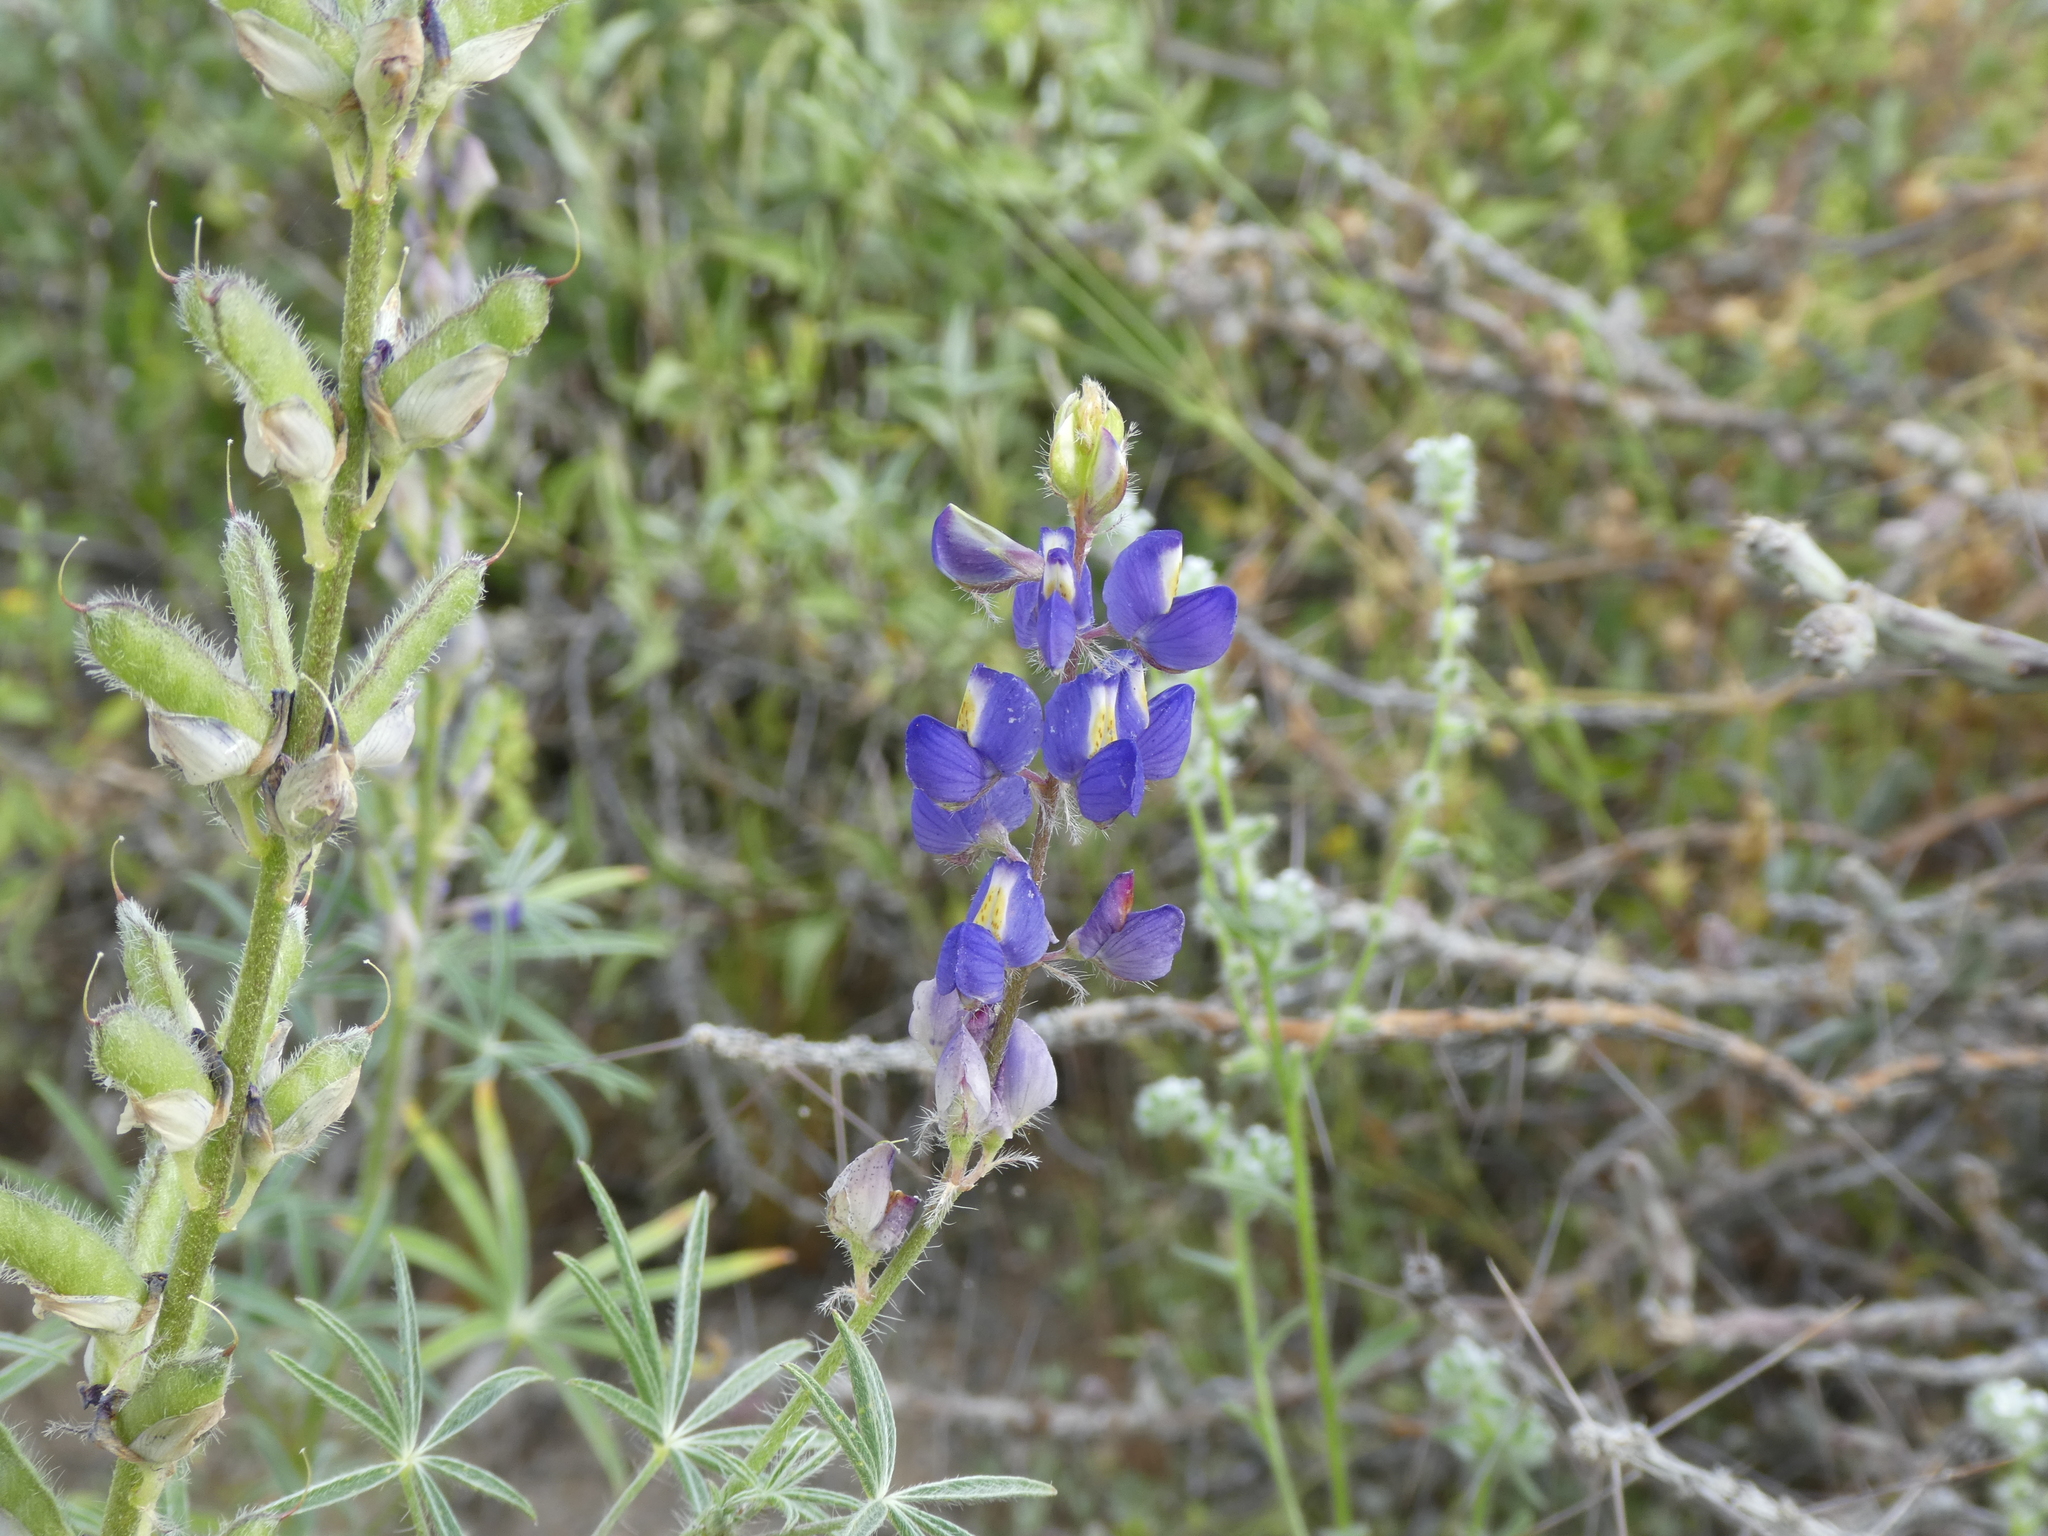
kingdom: Plantae
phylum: Tracheophyta
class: Magnoliopsida
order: Fabales
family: Fabaceae
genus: Lupinus
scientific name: Lupinus sparsiflorus
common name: Coulter's lupine
